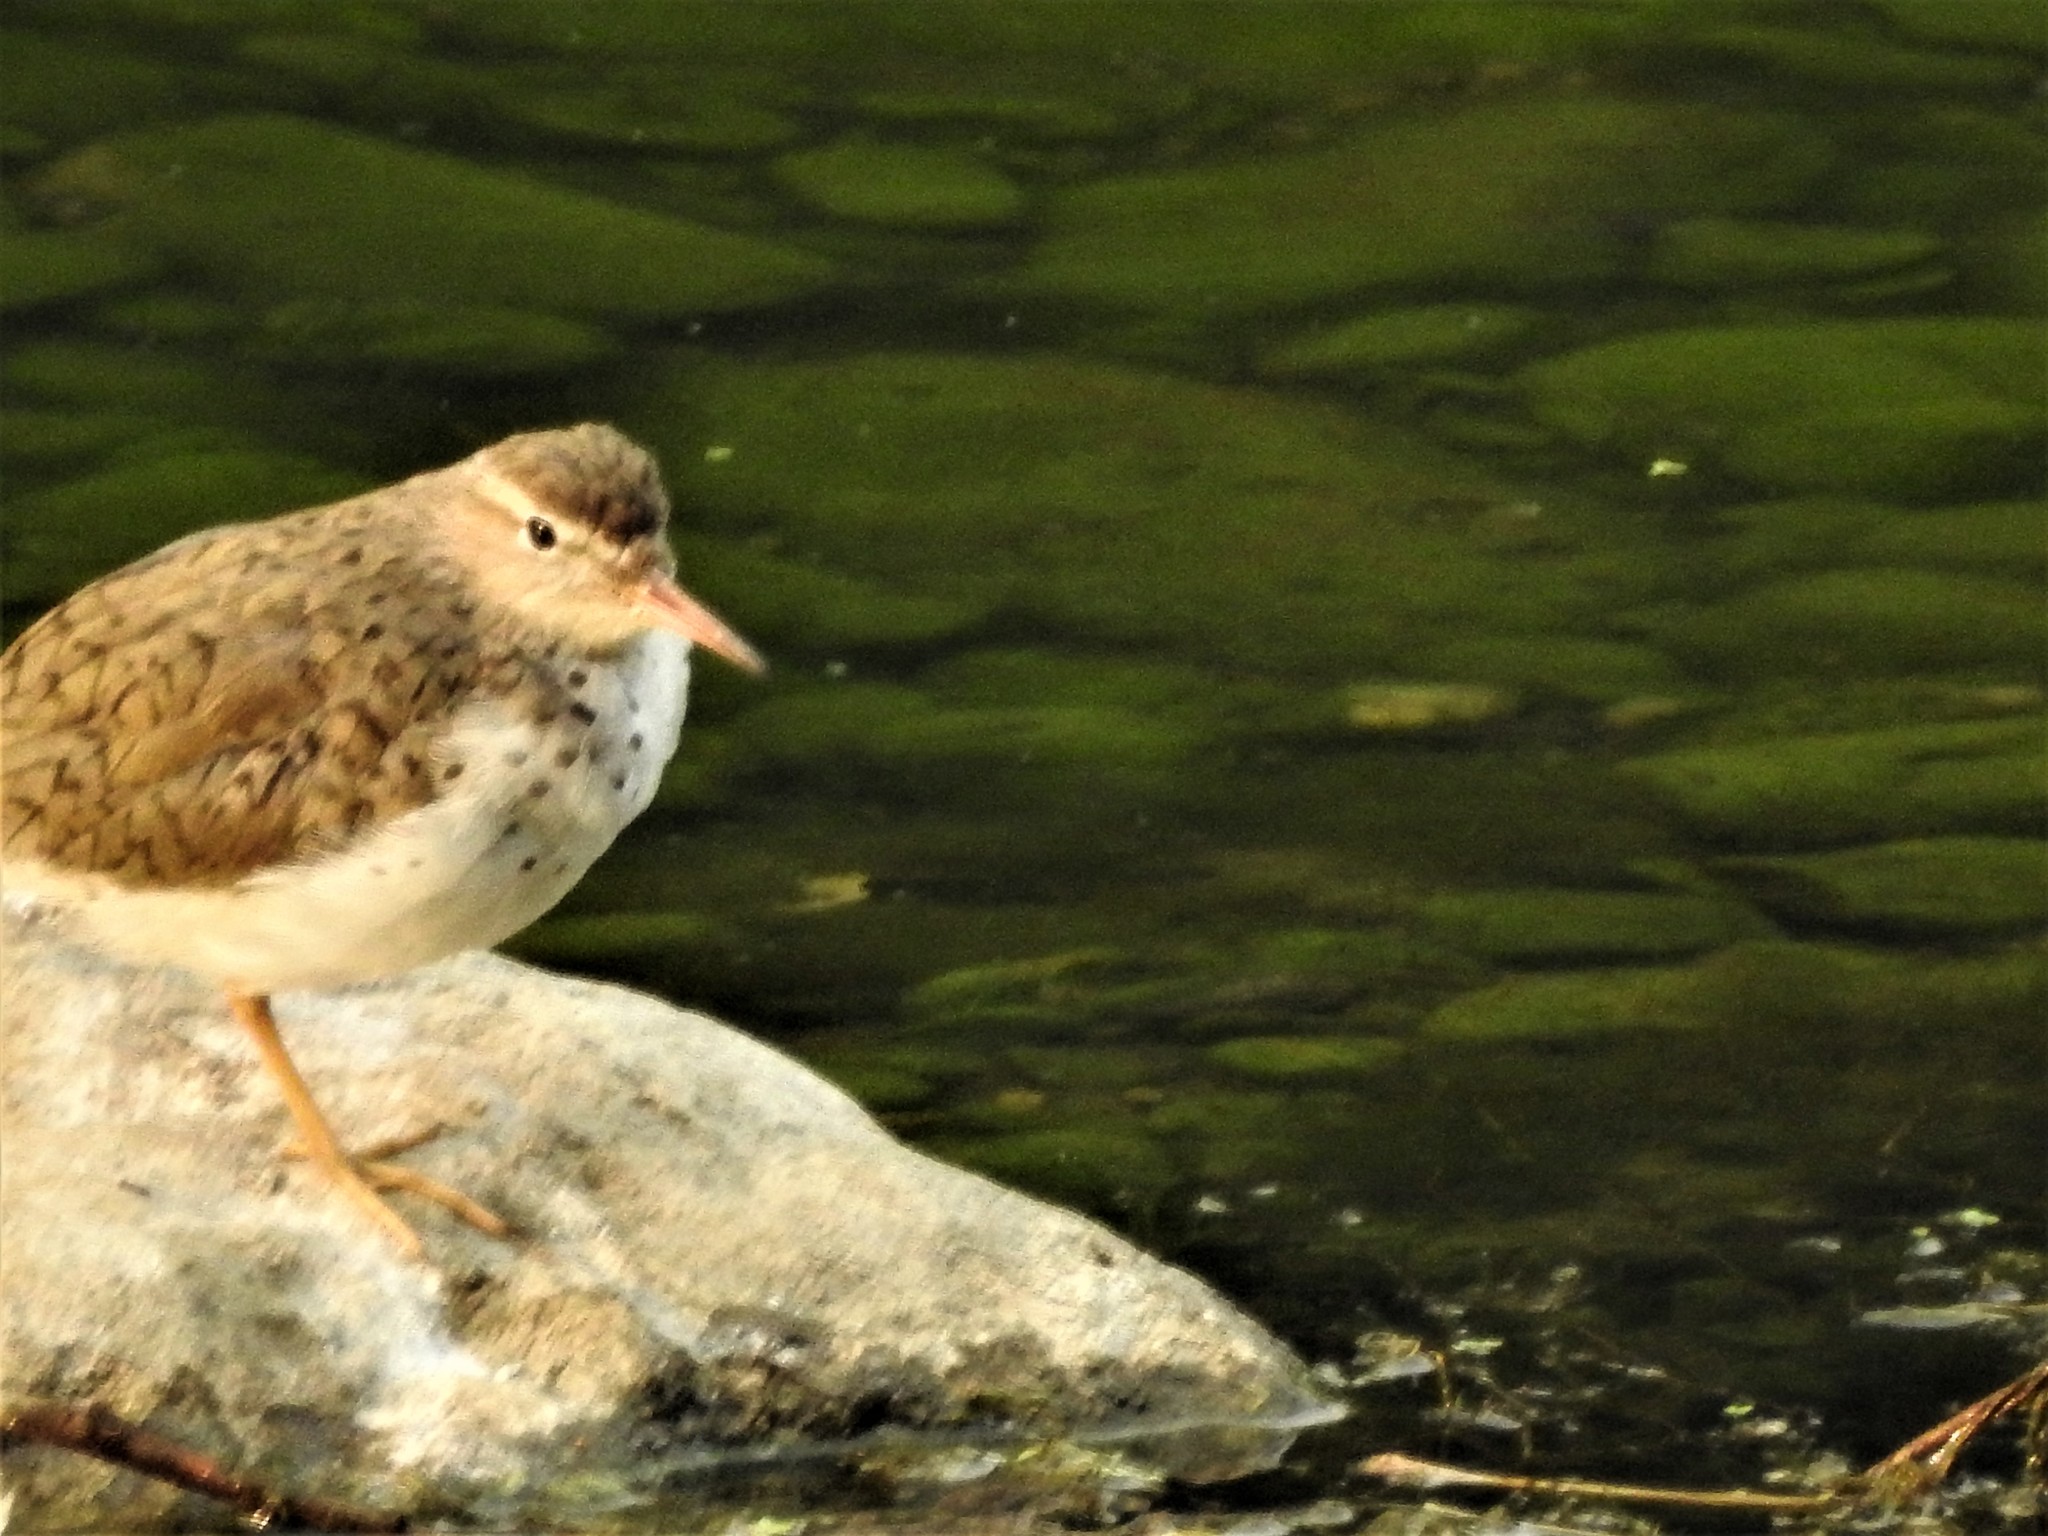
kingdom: Animalia
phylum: Chordata
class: Aves
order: Charadriiformes
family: Scolopacidae
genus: Actitis
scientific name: Actitis macularius
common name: Spotted sandpiper
